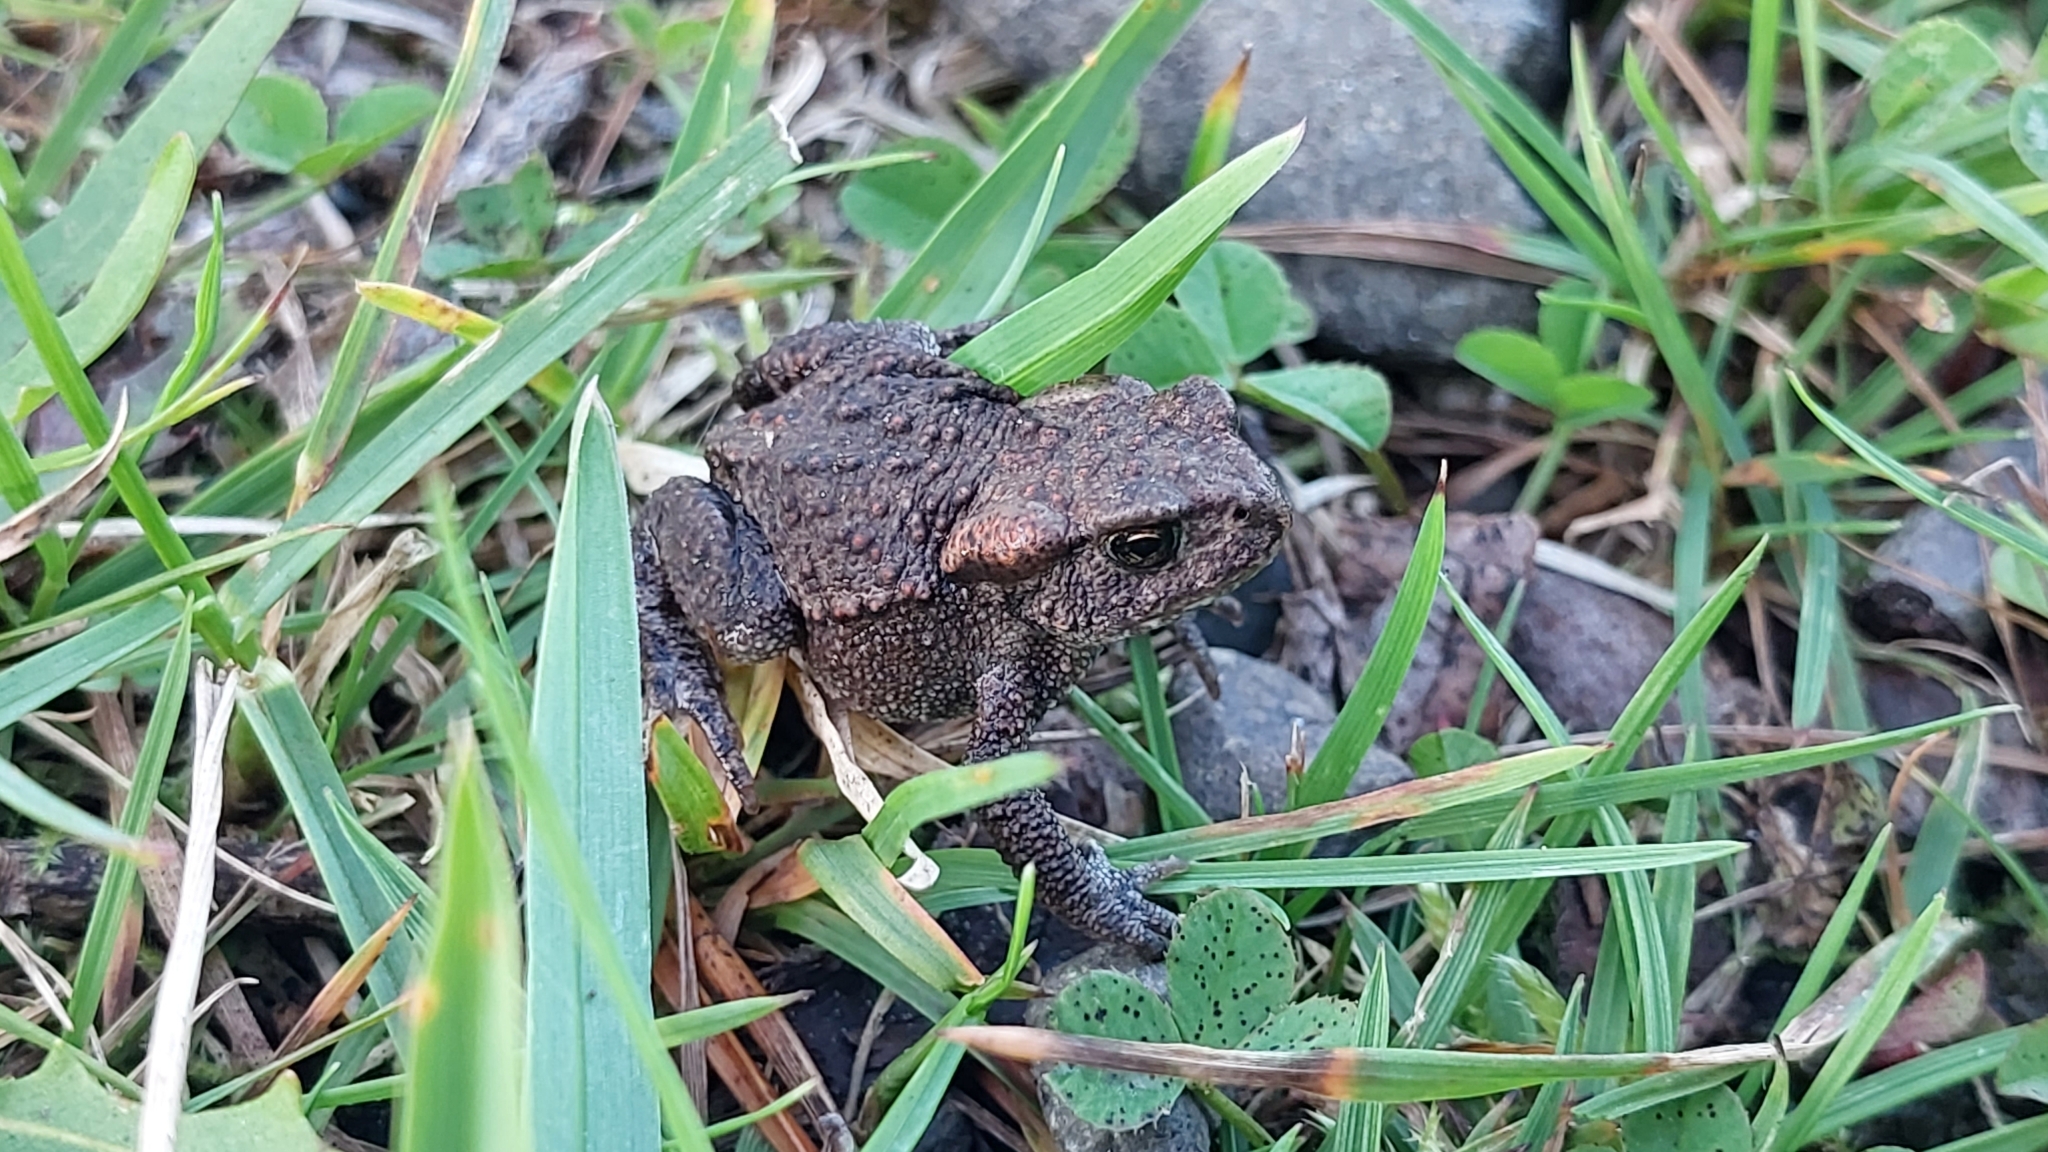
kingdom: Animalia
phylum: Chordata
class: Amphibia
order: Anura
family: Bufonidae
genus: Bufo
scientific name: Bufo bufo
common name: Common toad
